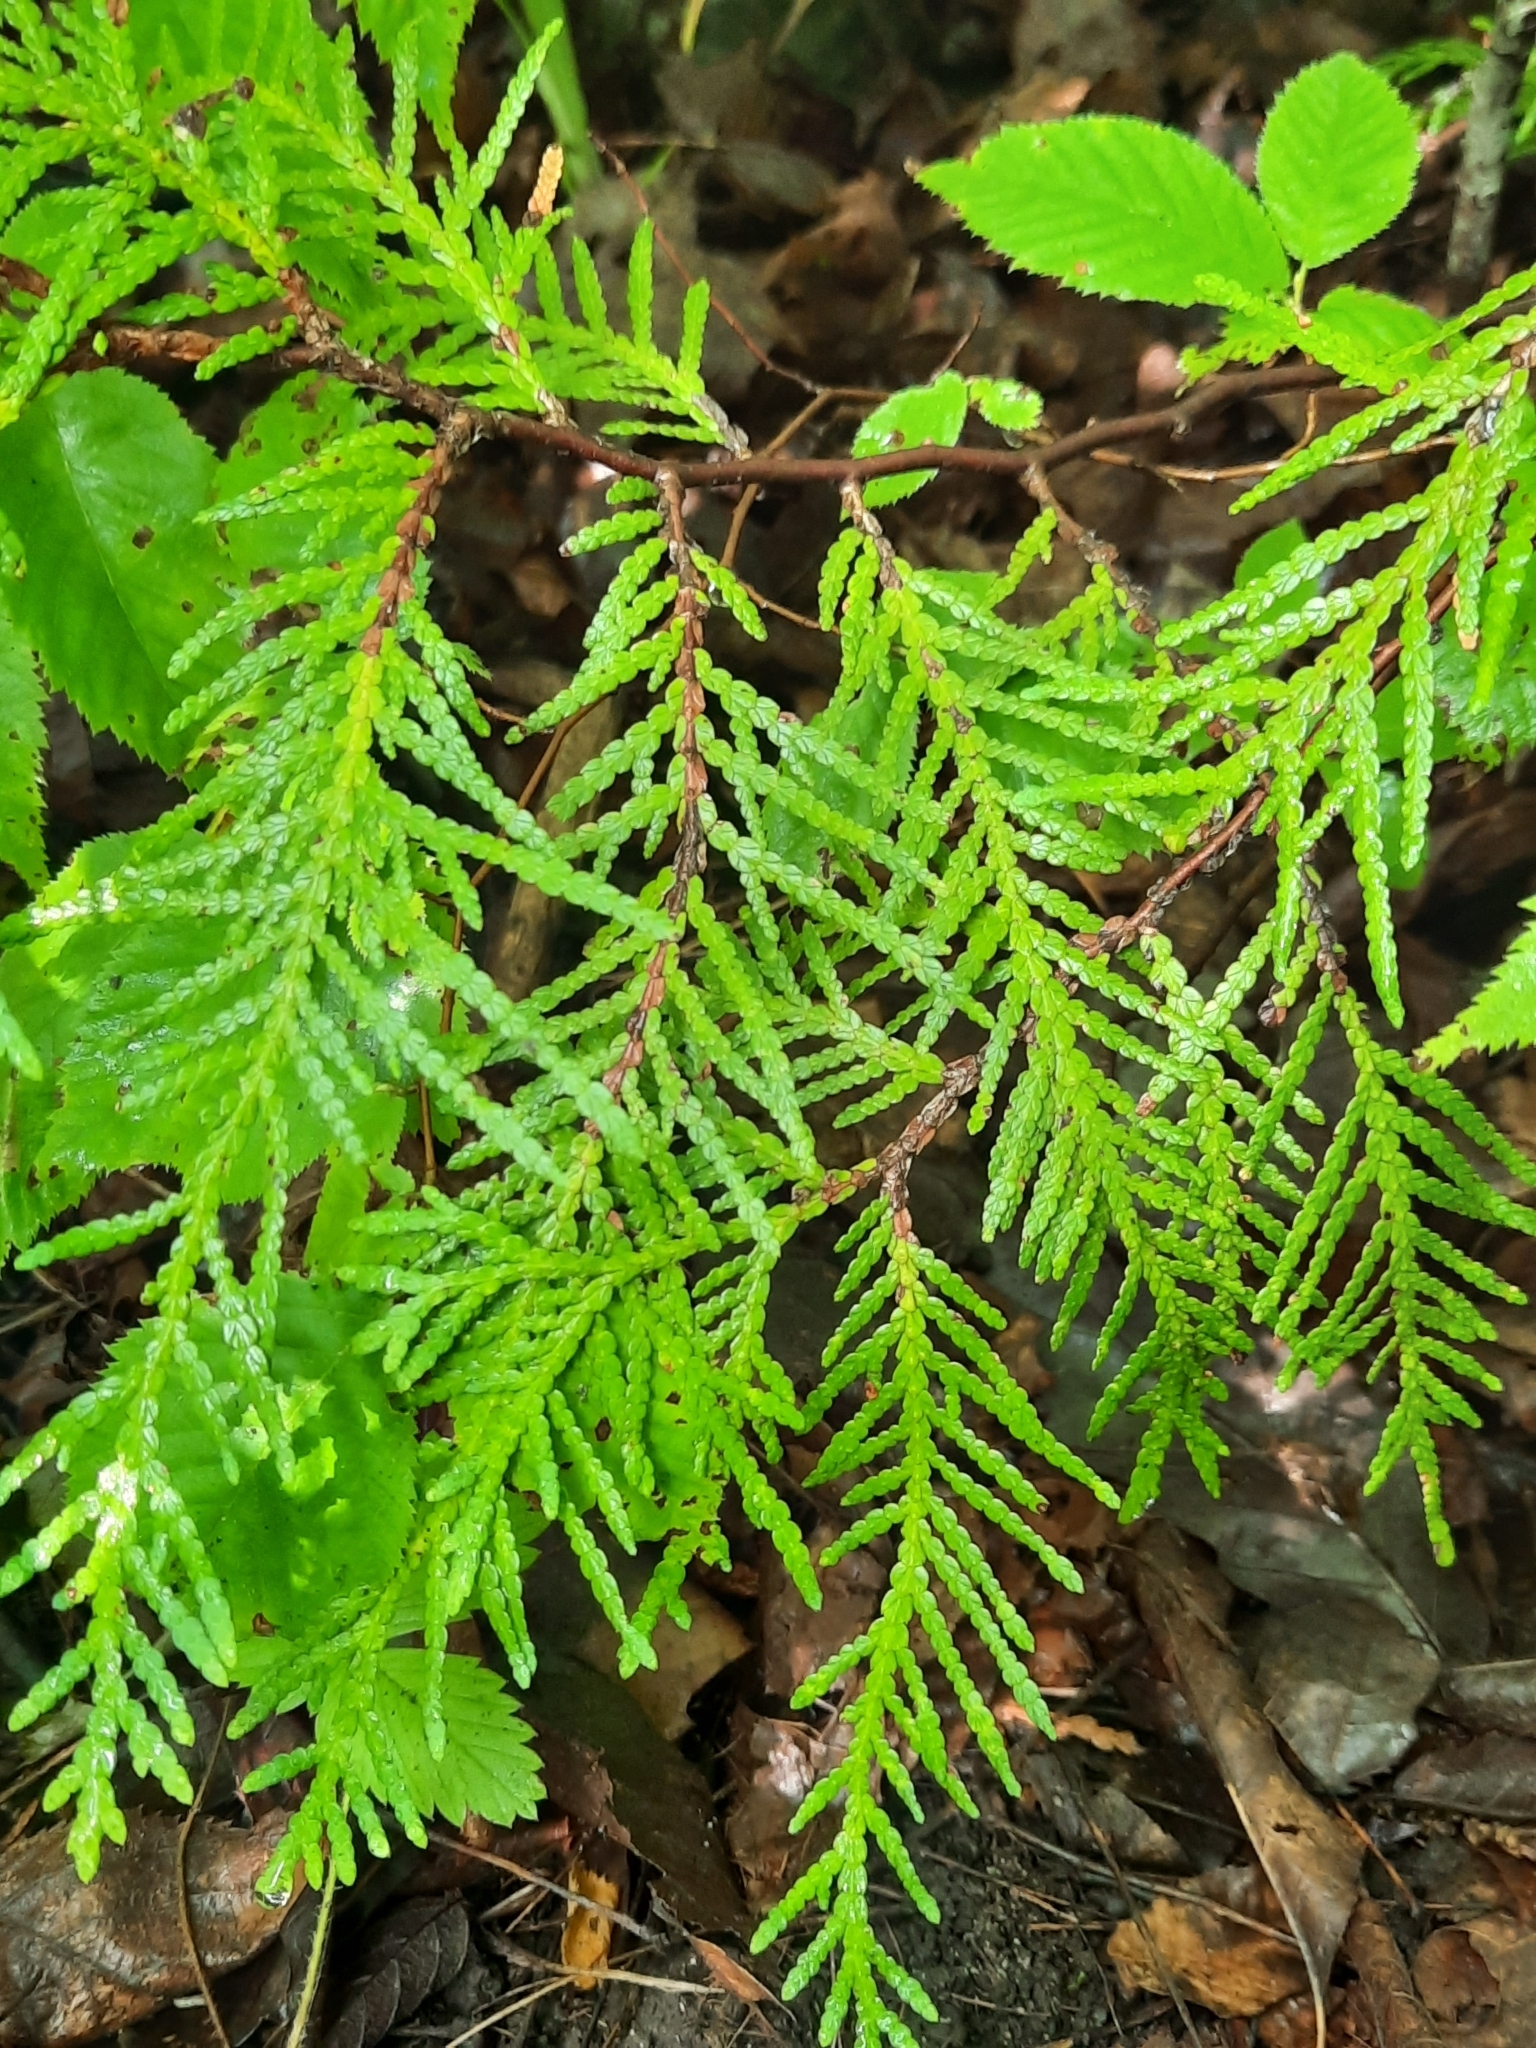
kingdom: Plantae
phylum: Tracheophyta
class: Pinopsida
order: Pinales
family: Cupressaceae
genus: Thuja
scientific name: Thuja occidentalis
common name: Northern white-cedar
